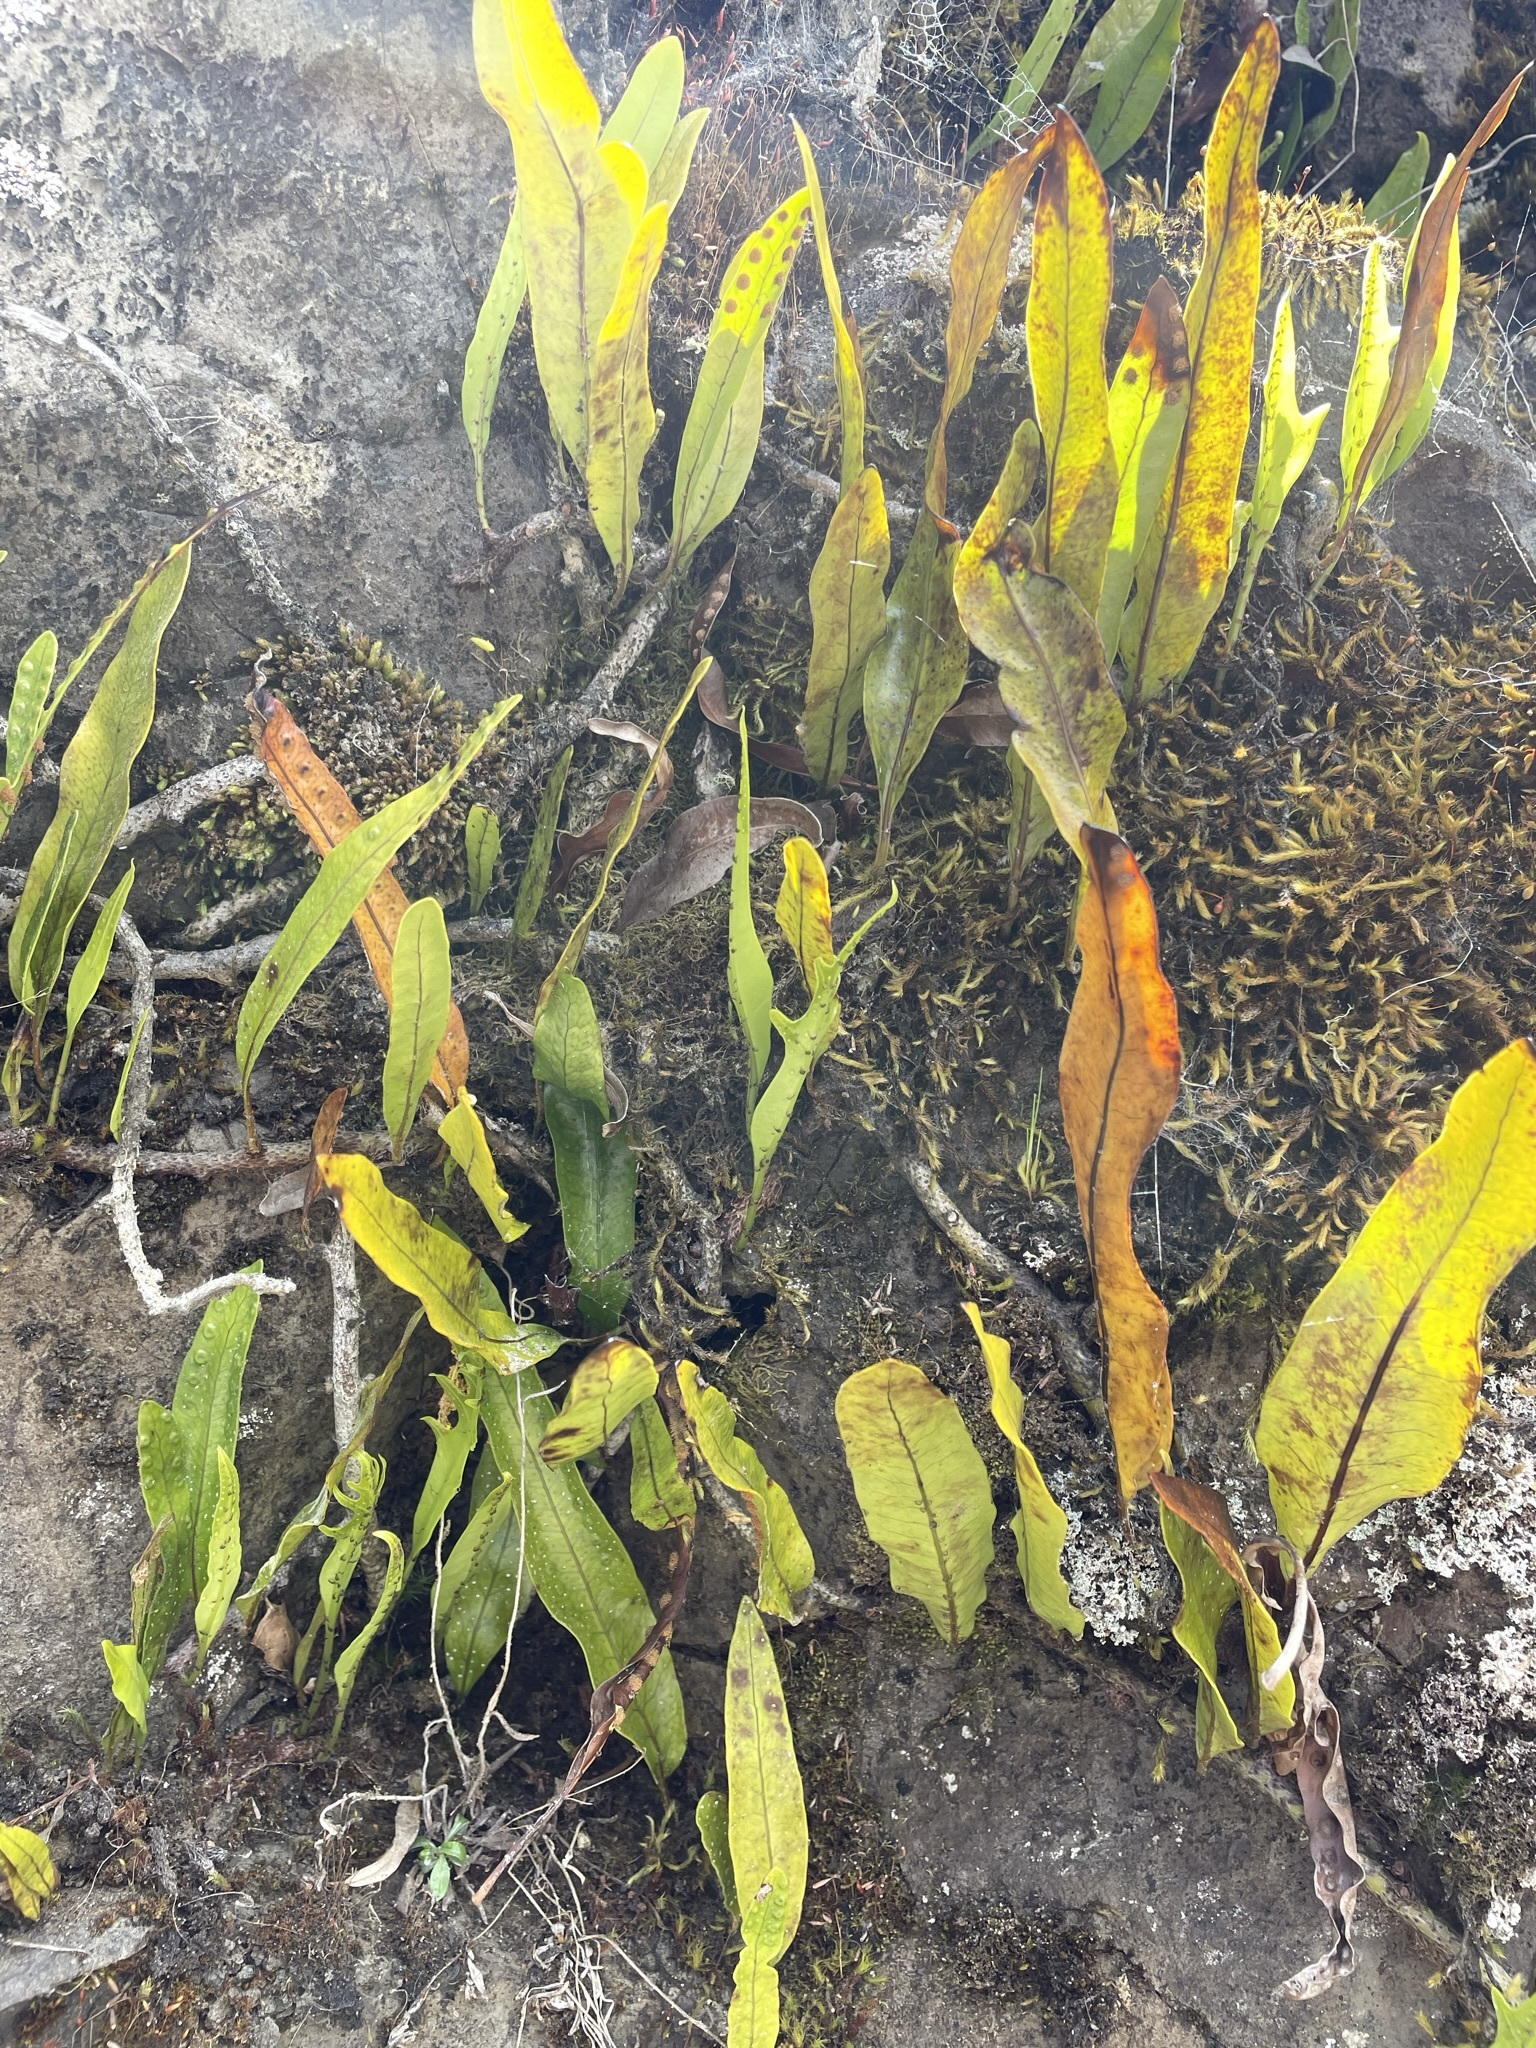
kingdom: Plantae
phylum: Tracheophyta
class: Polypodiopsida
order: Polypodiales
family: Polypodiaceae
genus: Lecanopteris
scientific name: Lecanopteris pustulata
